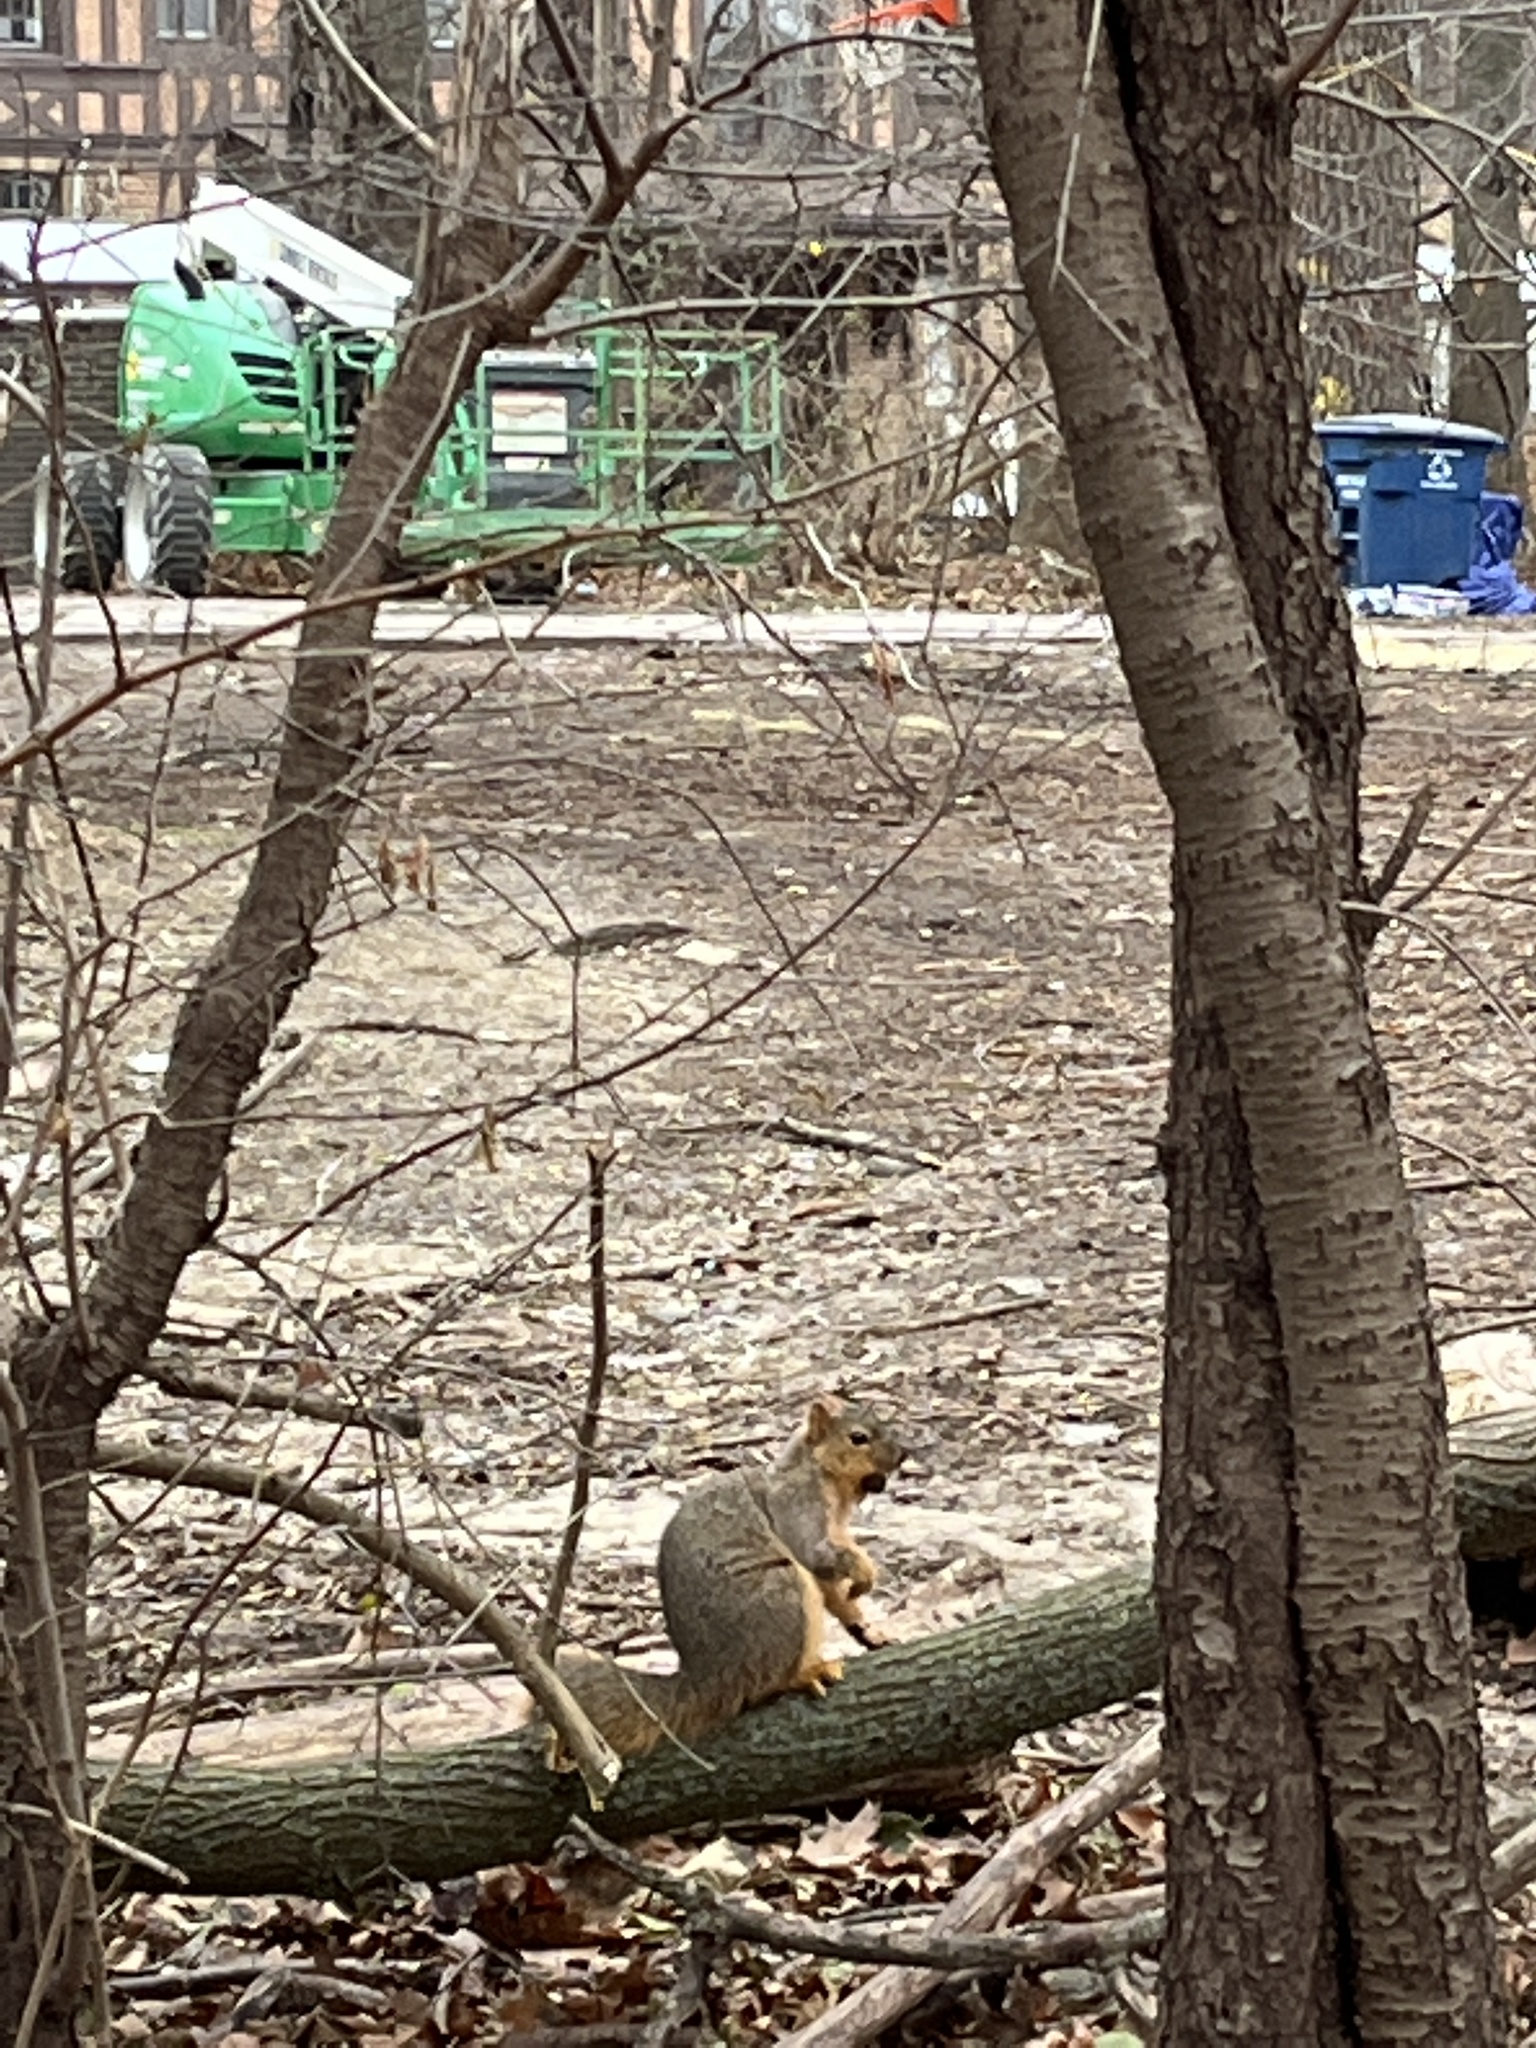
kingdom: Animalia
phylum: Chordata
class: Mammalia
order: Rodentia
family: Sciuridae
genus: Sciurus
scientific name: Sciurus niger
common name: Fox squirrel
